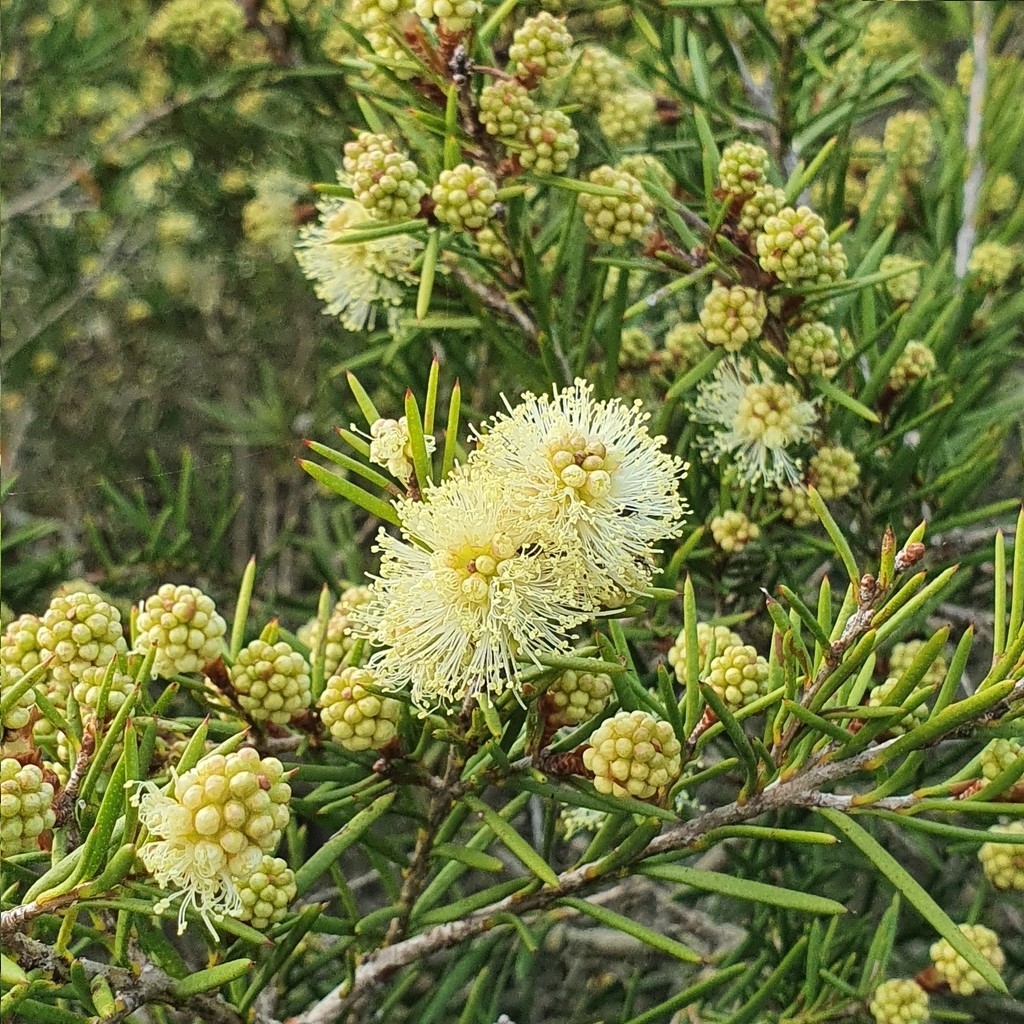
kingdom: Plantae
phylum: Tracheophyta
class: Magnoliopsida
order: Myrtales
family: Myrtaceae
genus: Melaleuca
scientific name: Melaleuca nodosa
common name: Prickly-leaf paperbark
